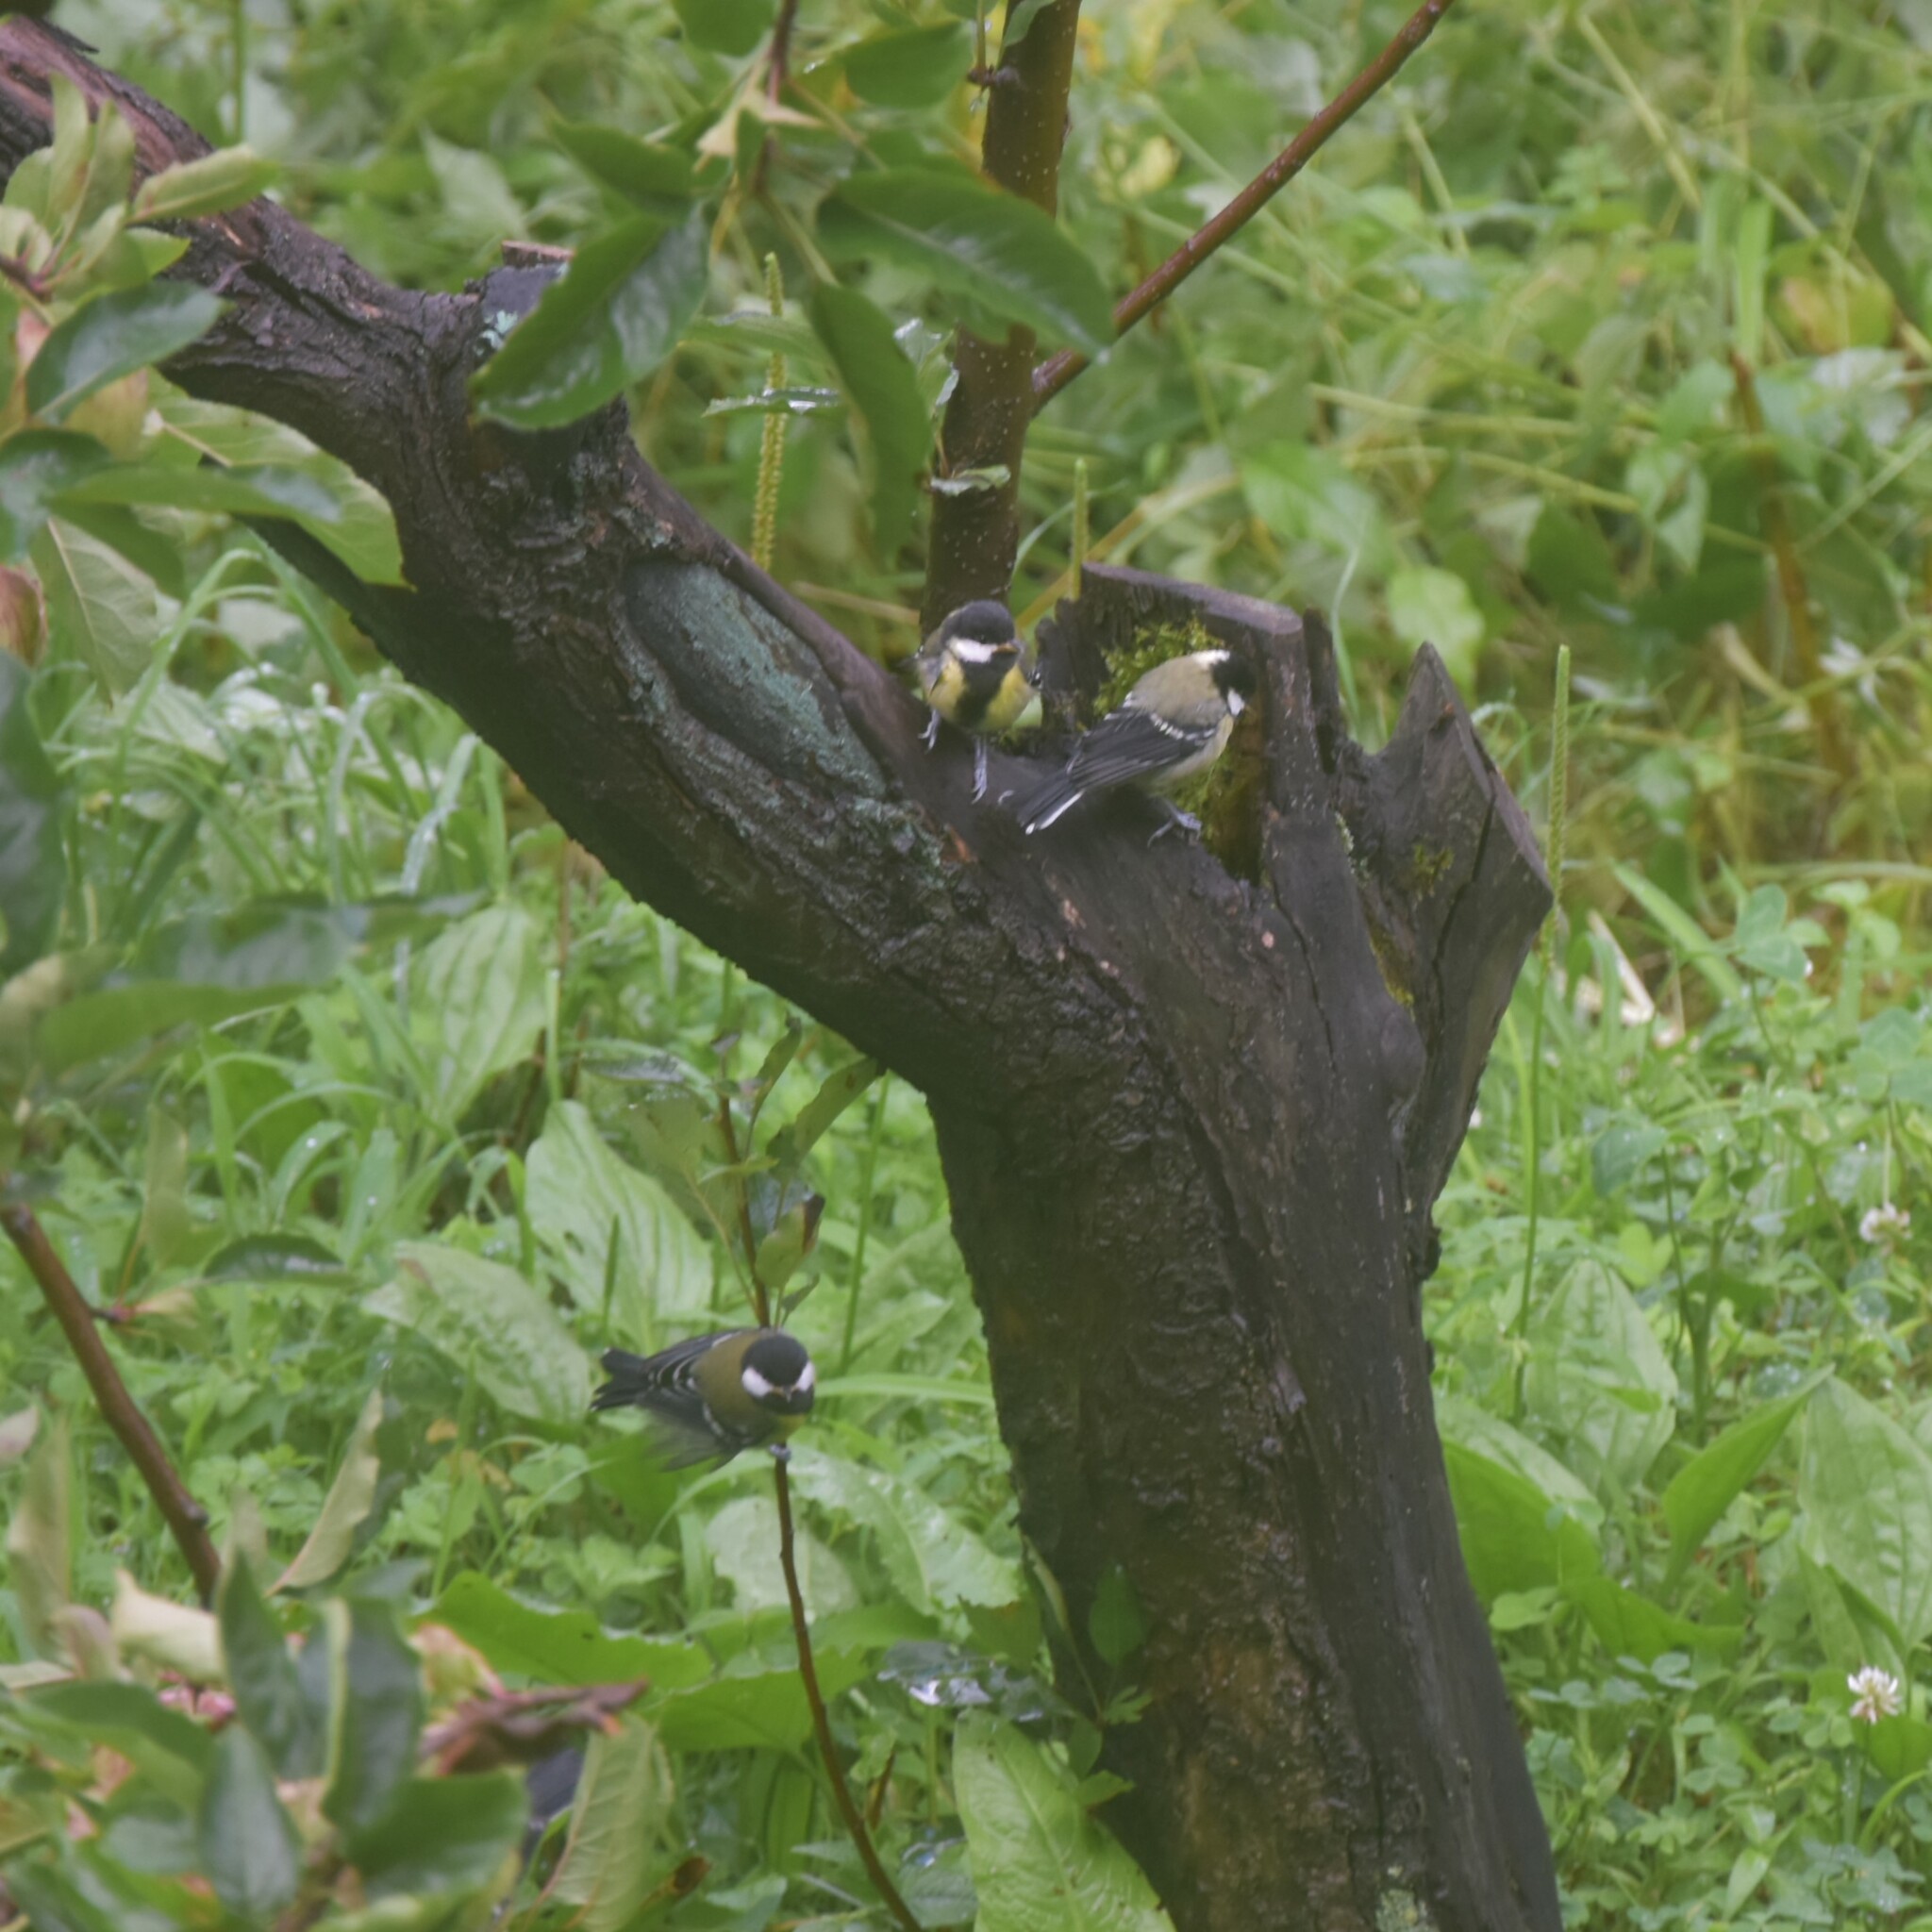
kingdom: Animalia
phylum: Chordata
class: Aves
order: Passeriformes
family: Paridae
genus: Parus
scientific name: Parus monticolus
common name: Green-backed tit
